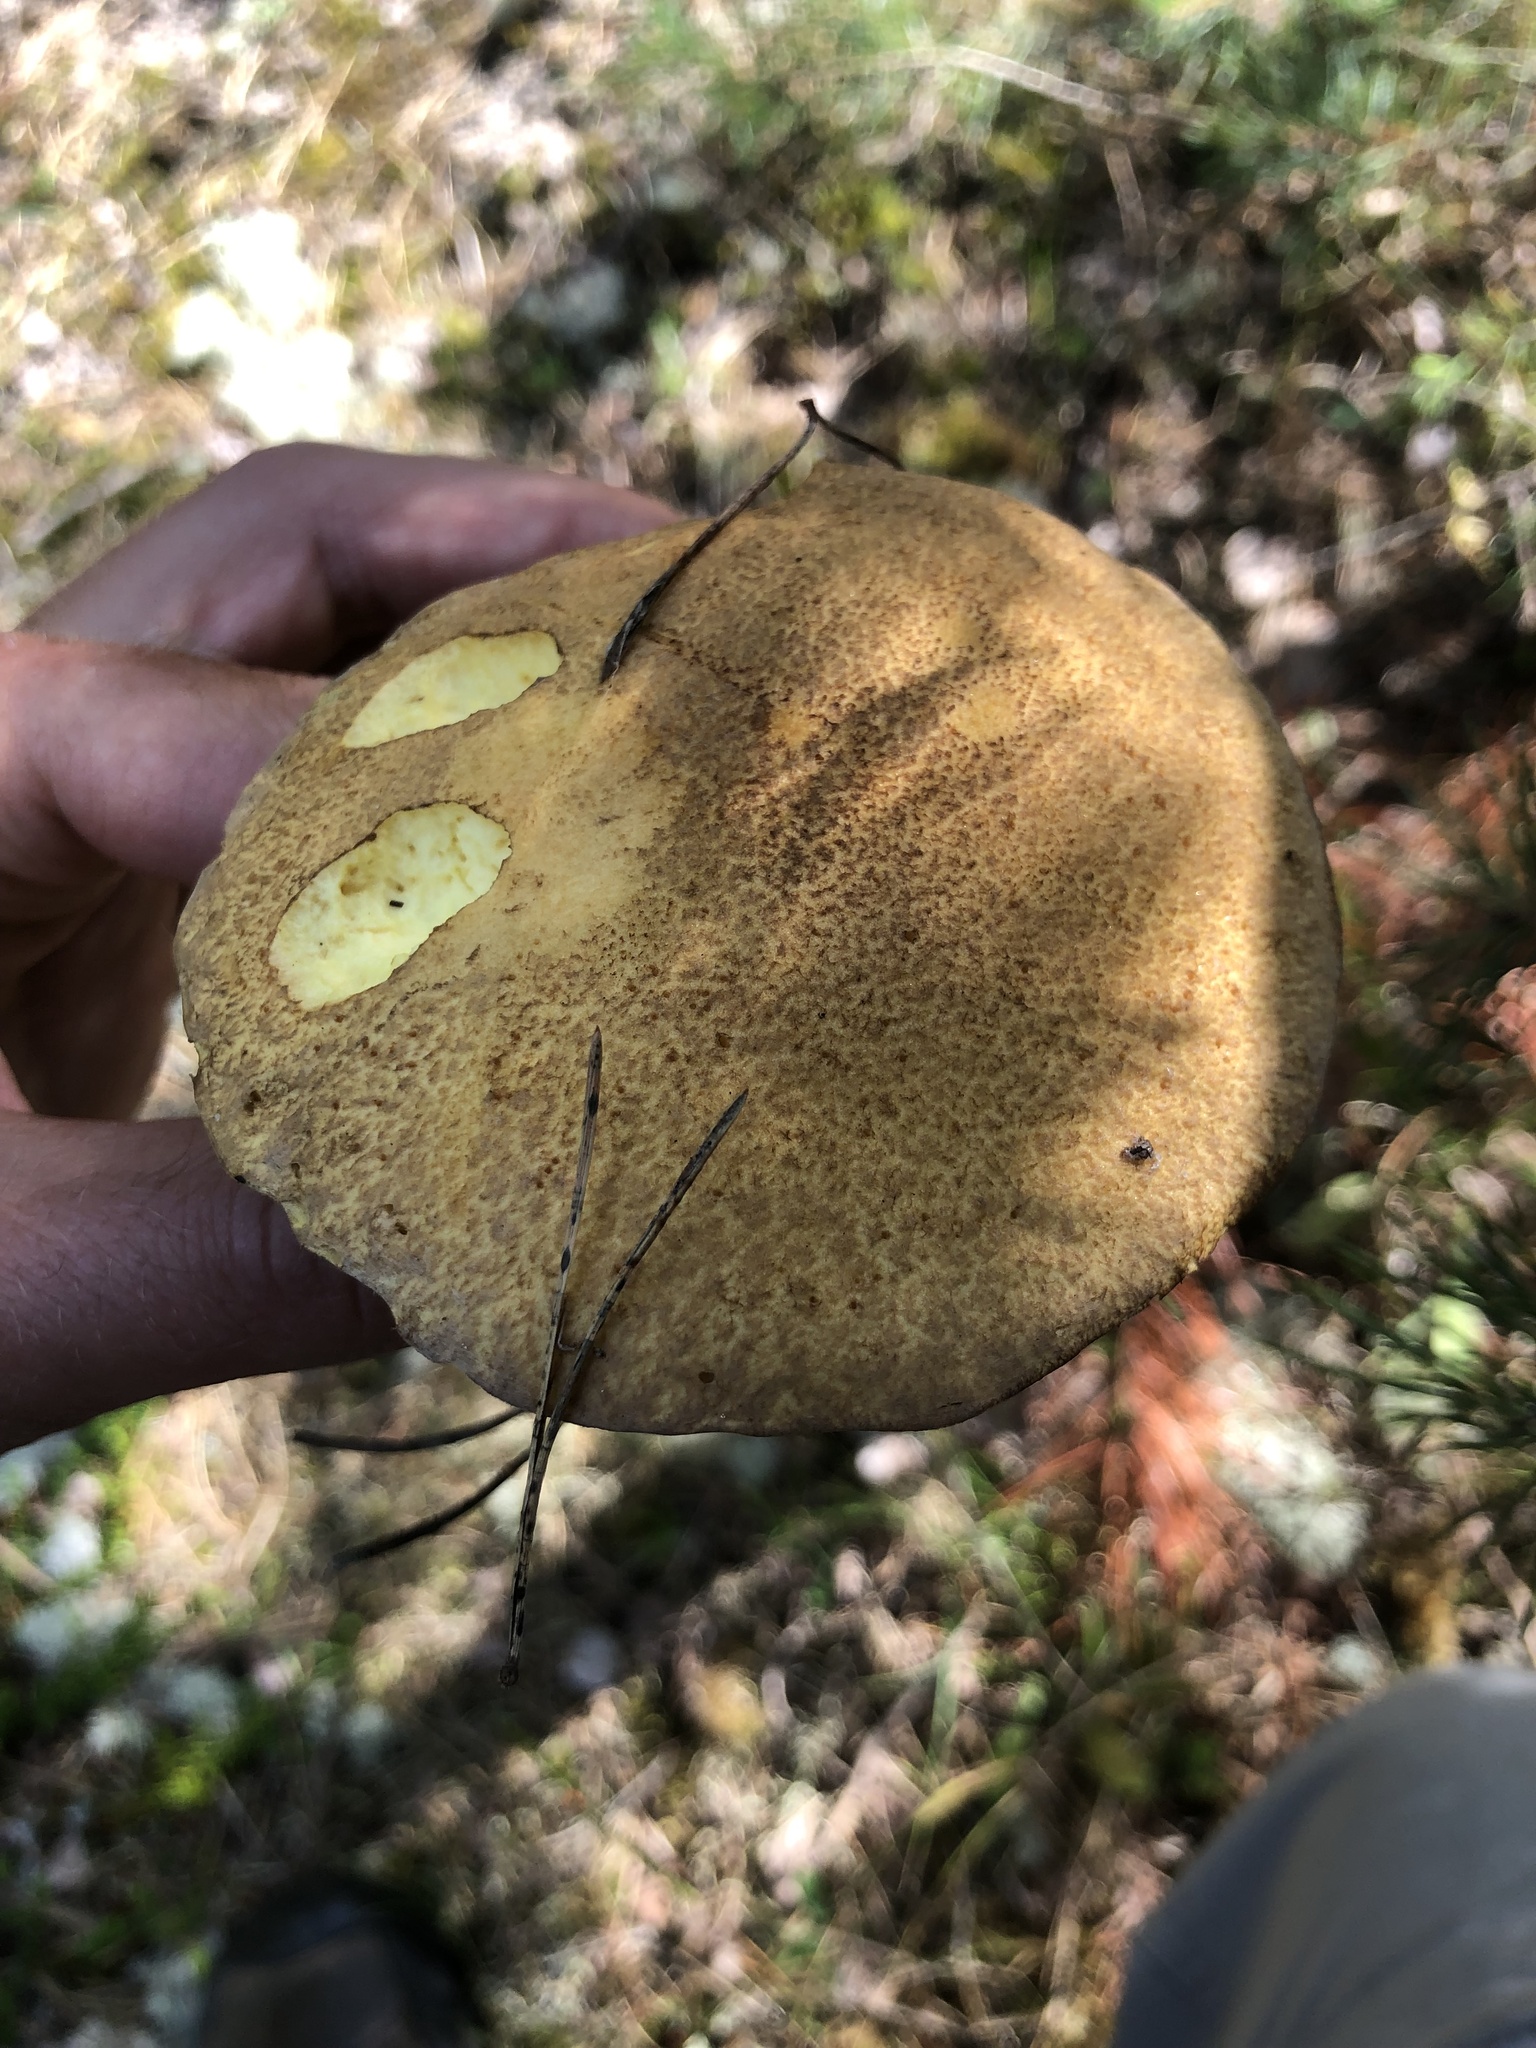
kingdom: Fungi
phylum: Basidiomycota
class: Agaricomycetes
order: Boletales
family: Suillaceae
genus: Suillus
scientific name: Suillus variegatus
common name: Velvet bolete
